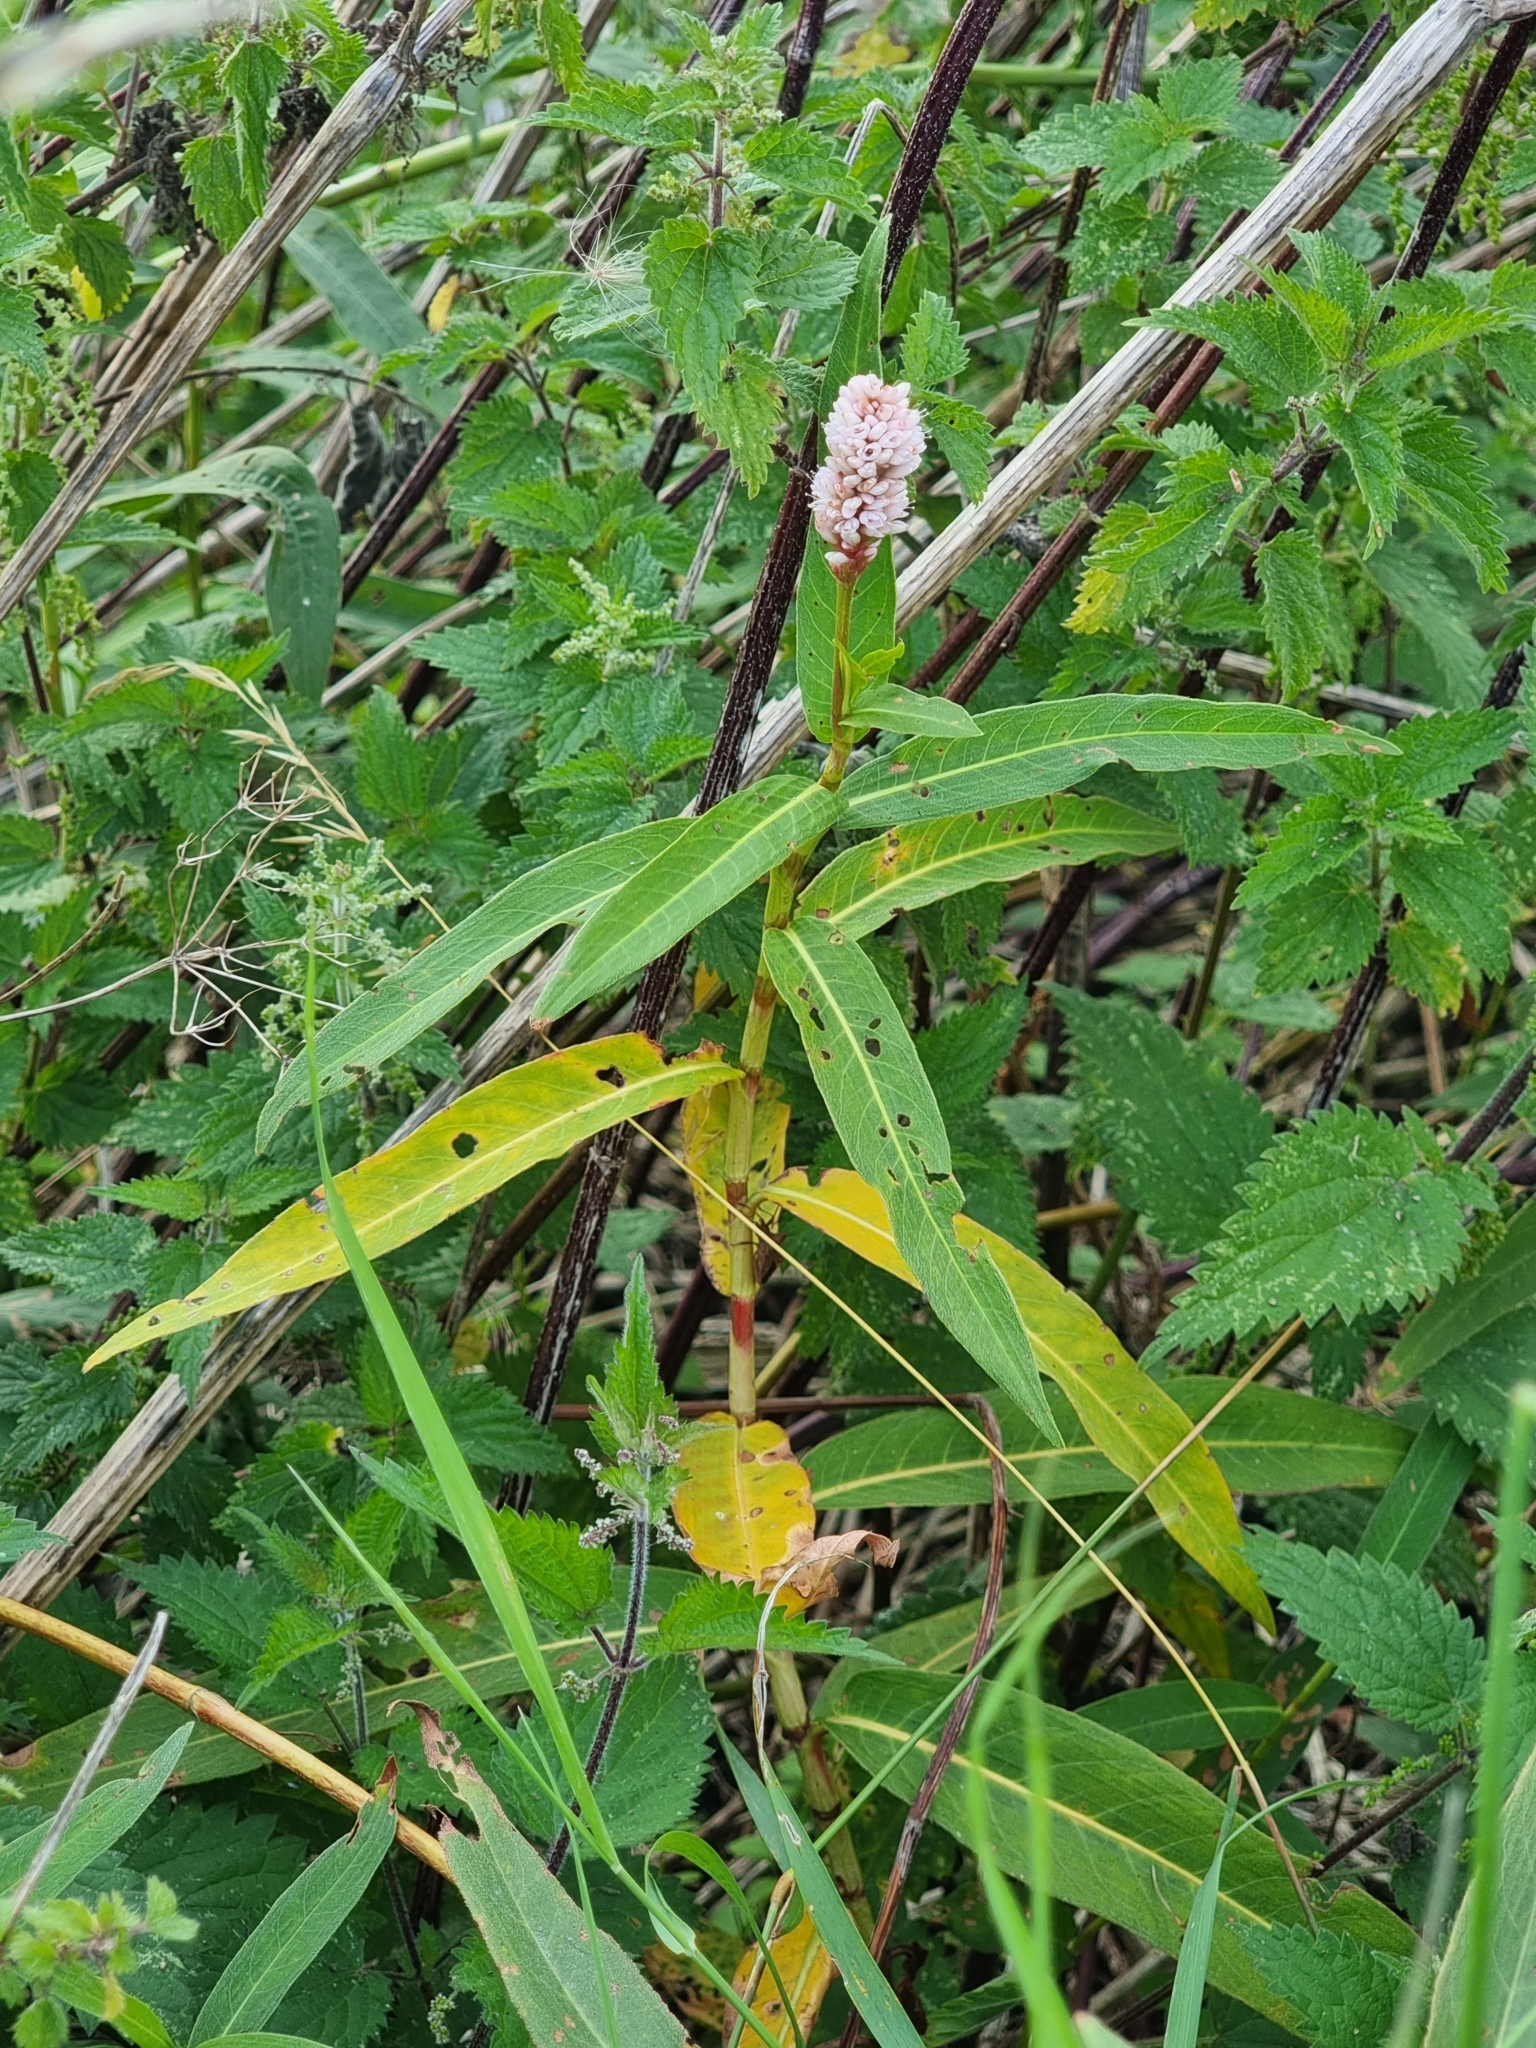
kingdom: Plantae
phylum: Tracheophyta
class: Magnoliopsida
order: Caryophyllales
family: Polygonaceae
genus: Persicaria
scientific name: Persicaria amphibia
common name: Amphibious bistort
